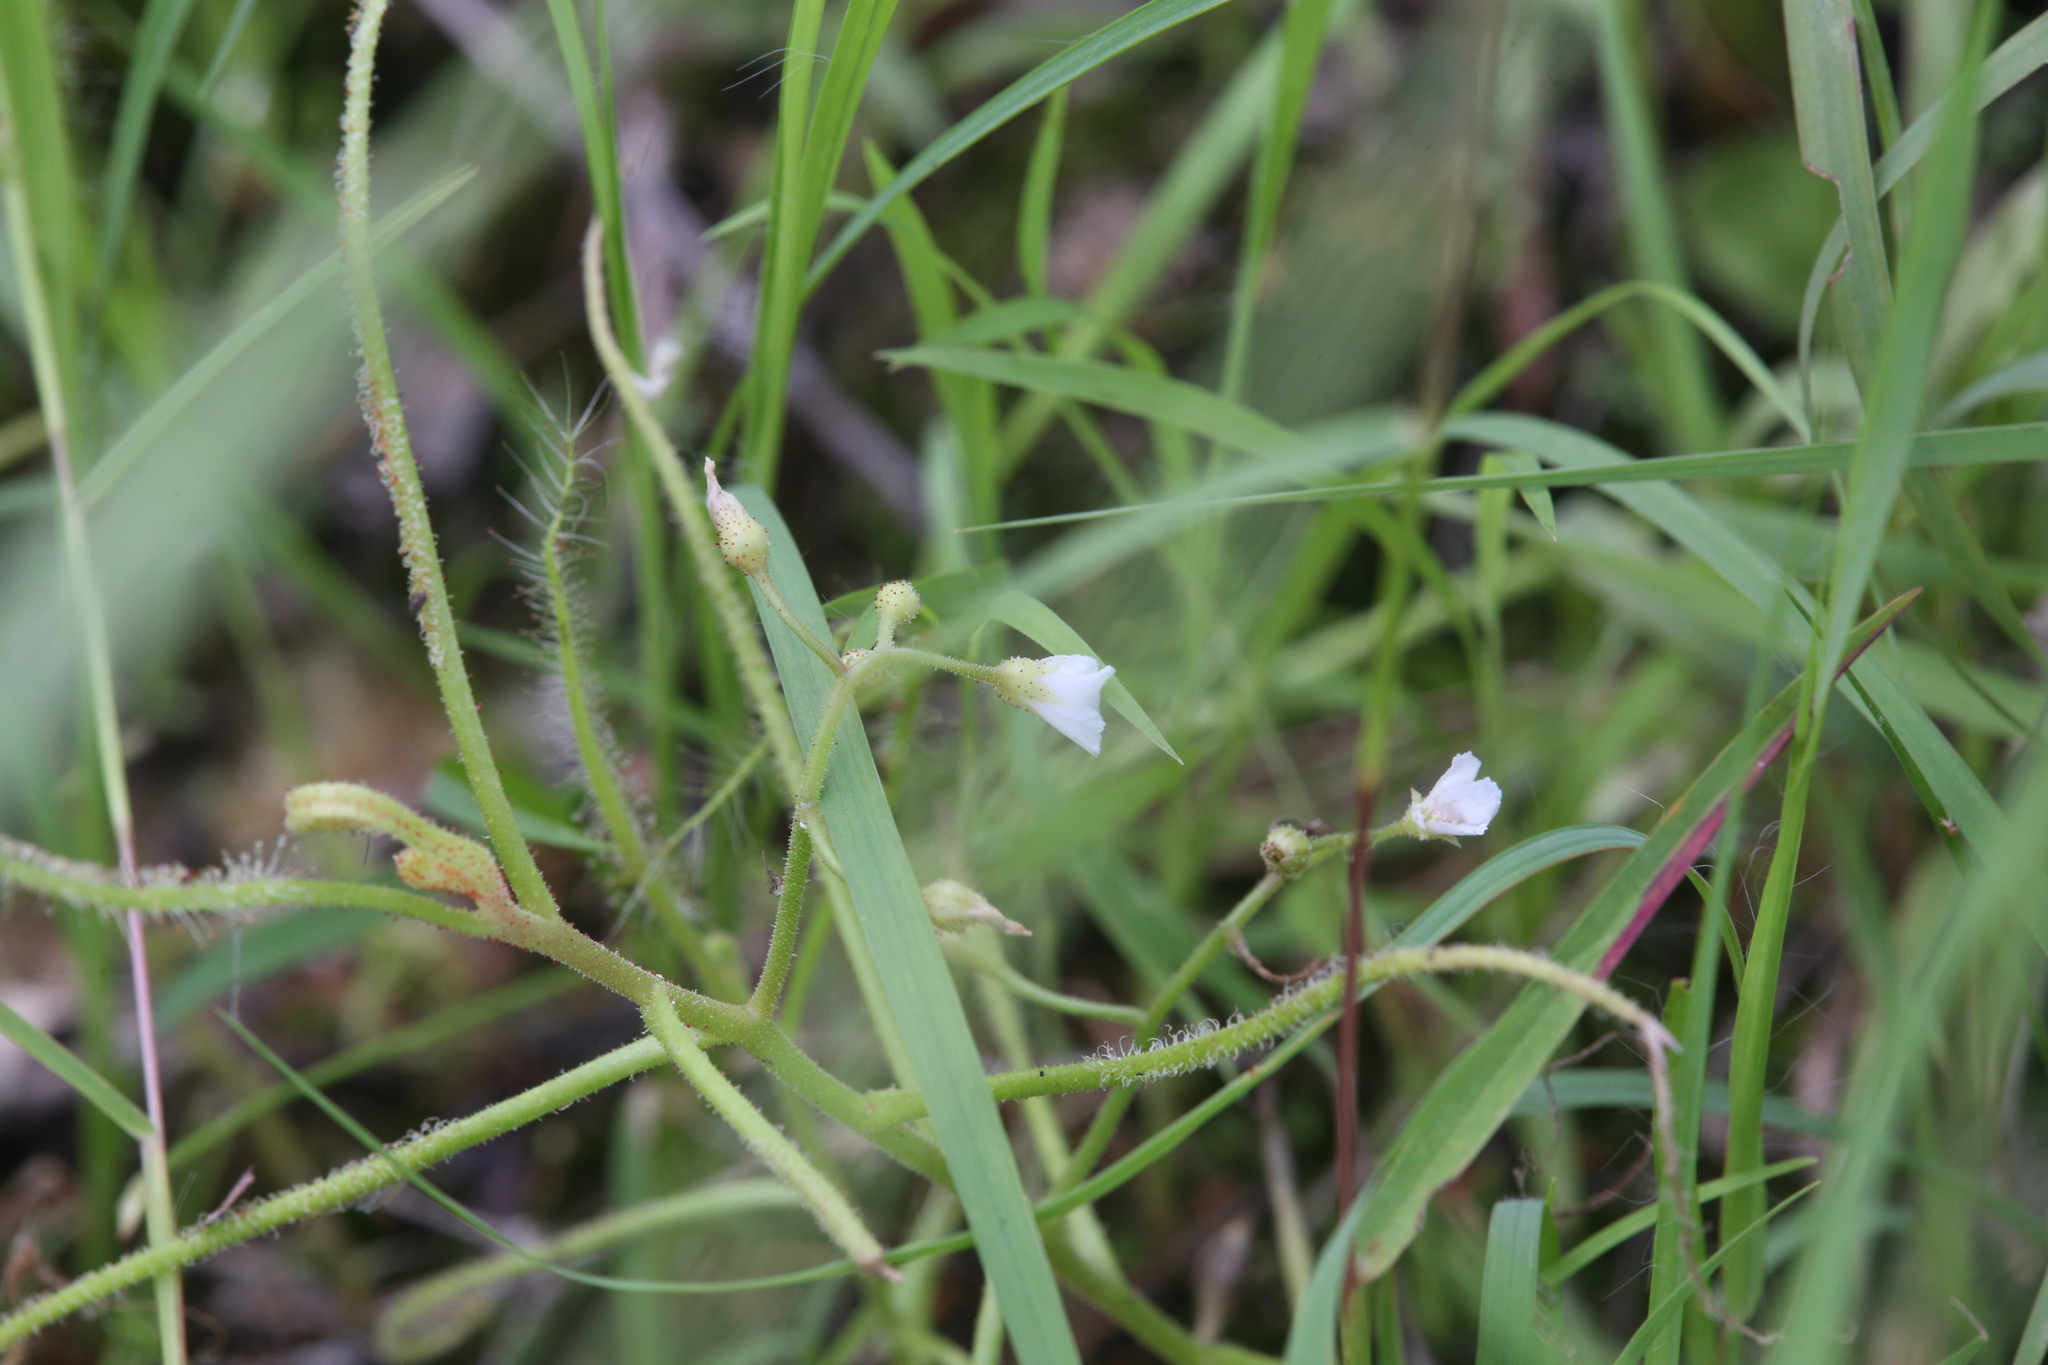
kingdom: Plantae
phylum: Tracheophyta
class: Magnoliopsida
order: Caryophyllales
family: Droseraceae
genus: Drosera
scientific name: Drosera indica
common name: Indian sundew
